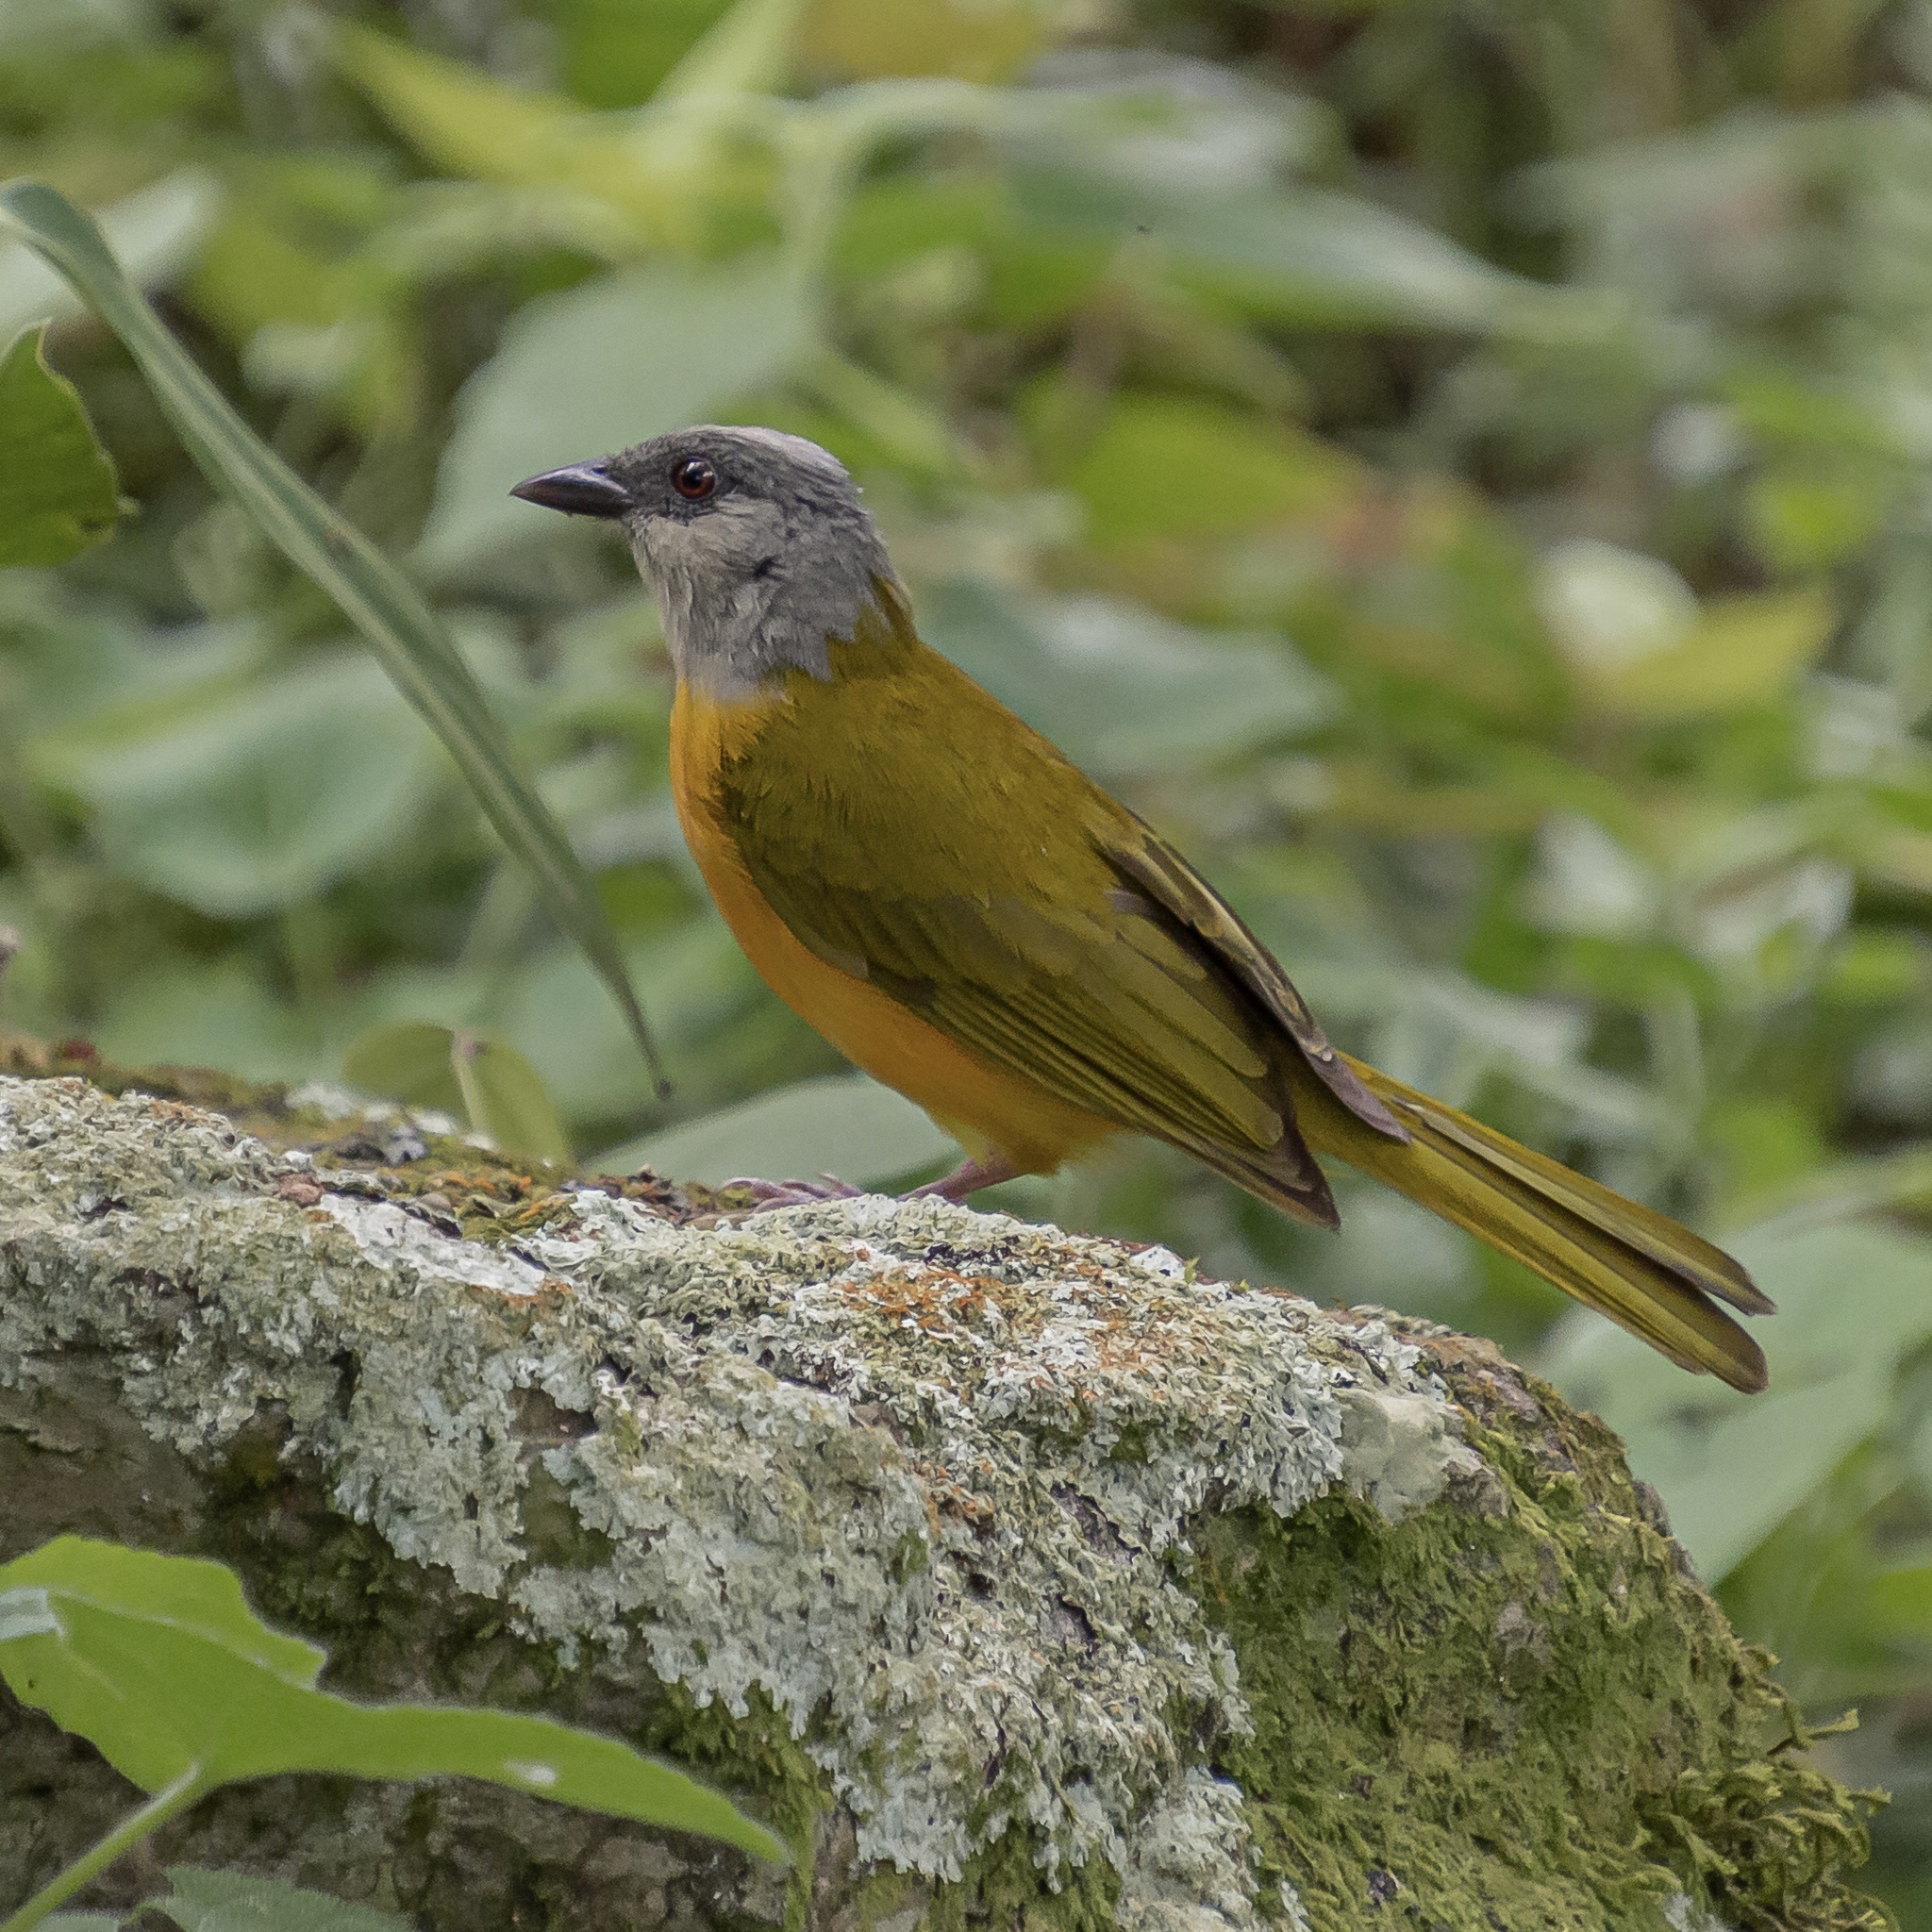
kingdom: Animalia
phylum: Chordata
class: Aves
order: Passeriformes
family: Thraupidae
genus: Eucometis
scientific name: Eucometis penicillata
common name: Grey-headed tanager
